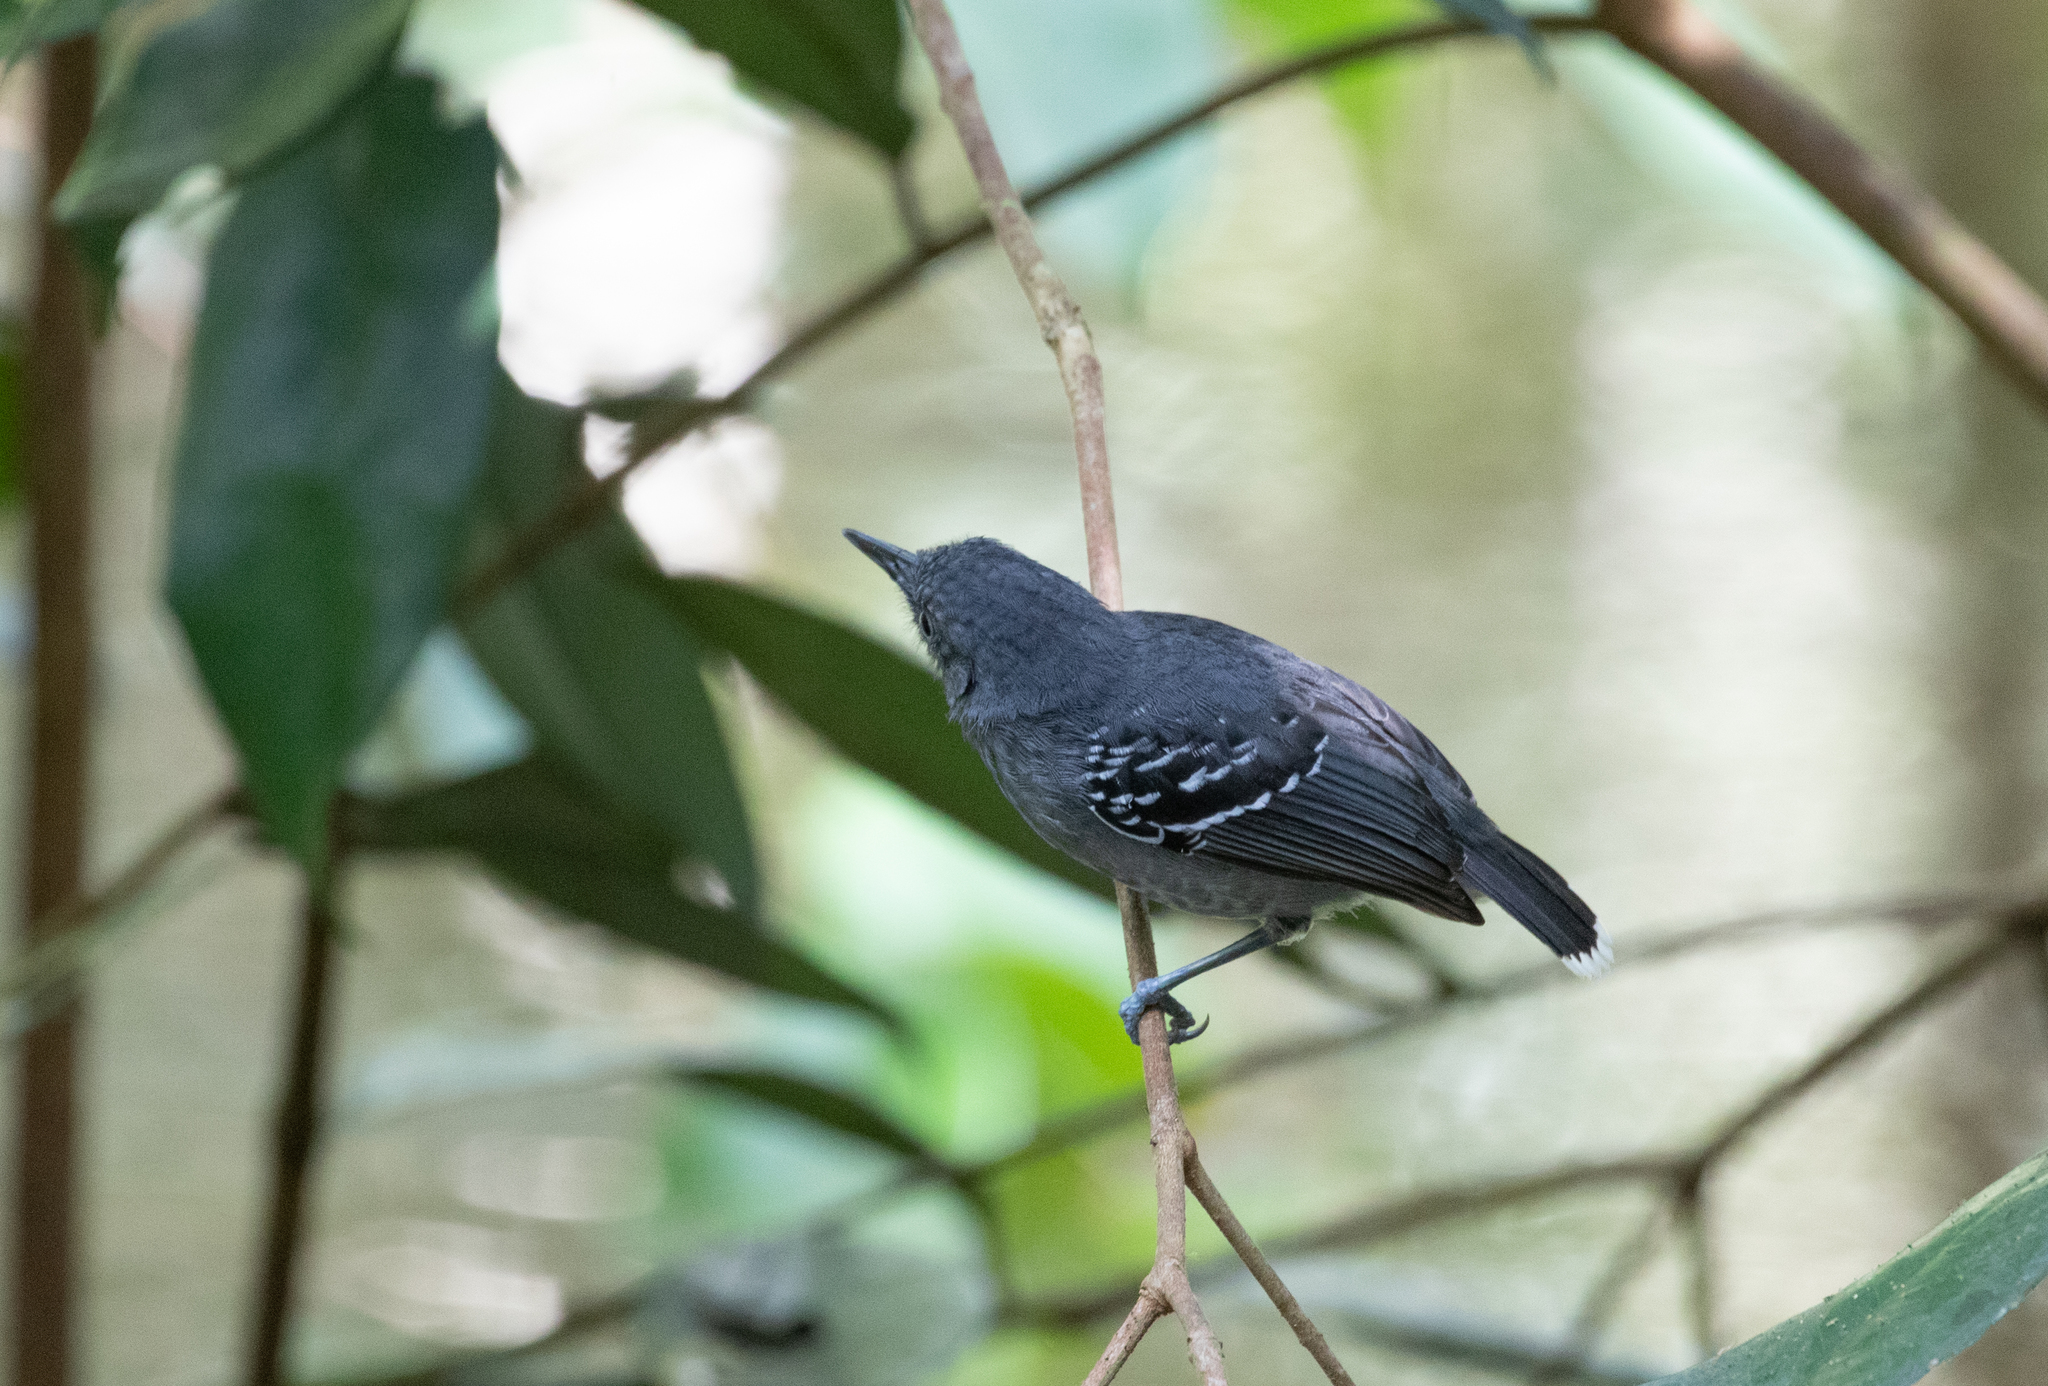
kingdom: Animalia
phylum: Chordata
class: Aves
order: Passeriformes
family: Thamnophilidae
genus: Hypocnemoides
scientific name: Hypocnemoides maculicauda
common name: Band-tailed antbird
